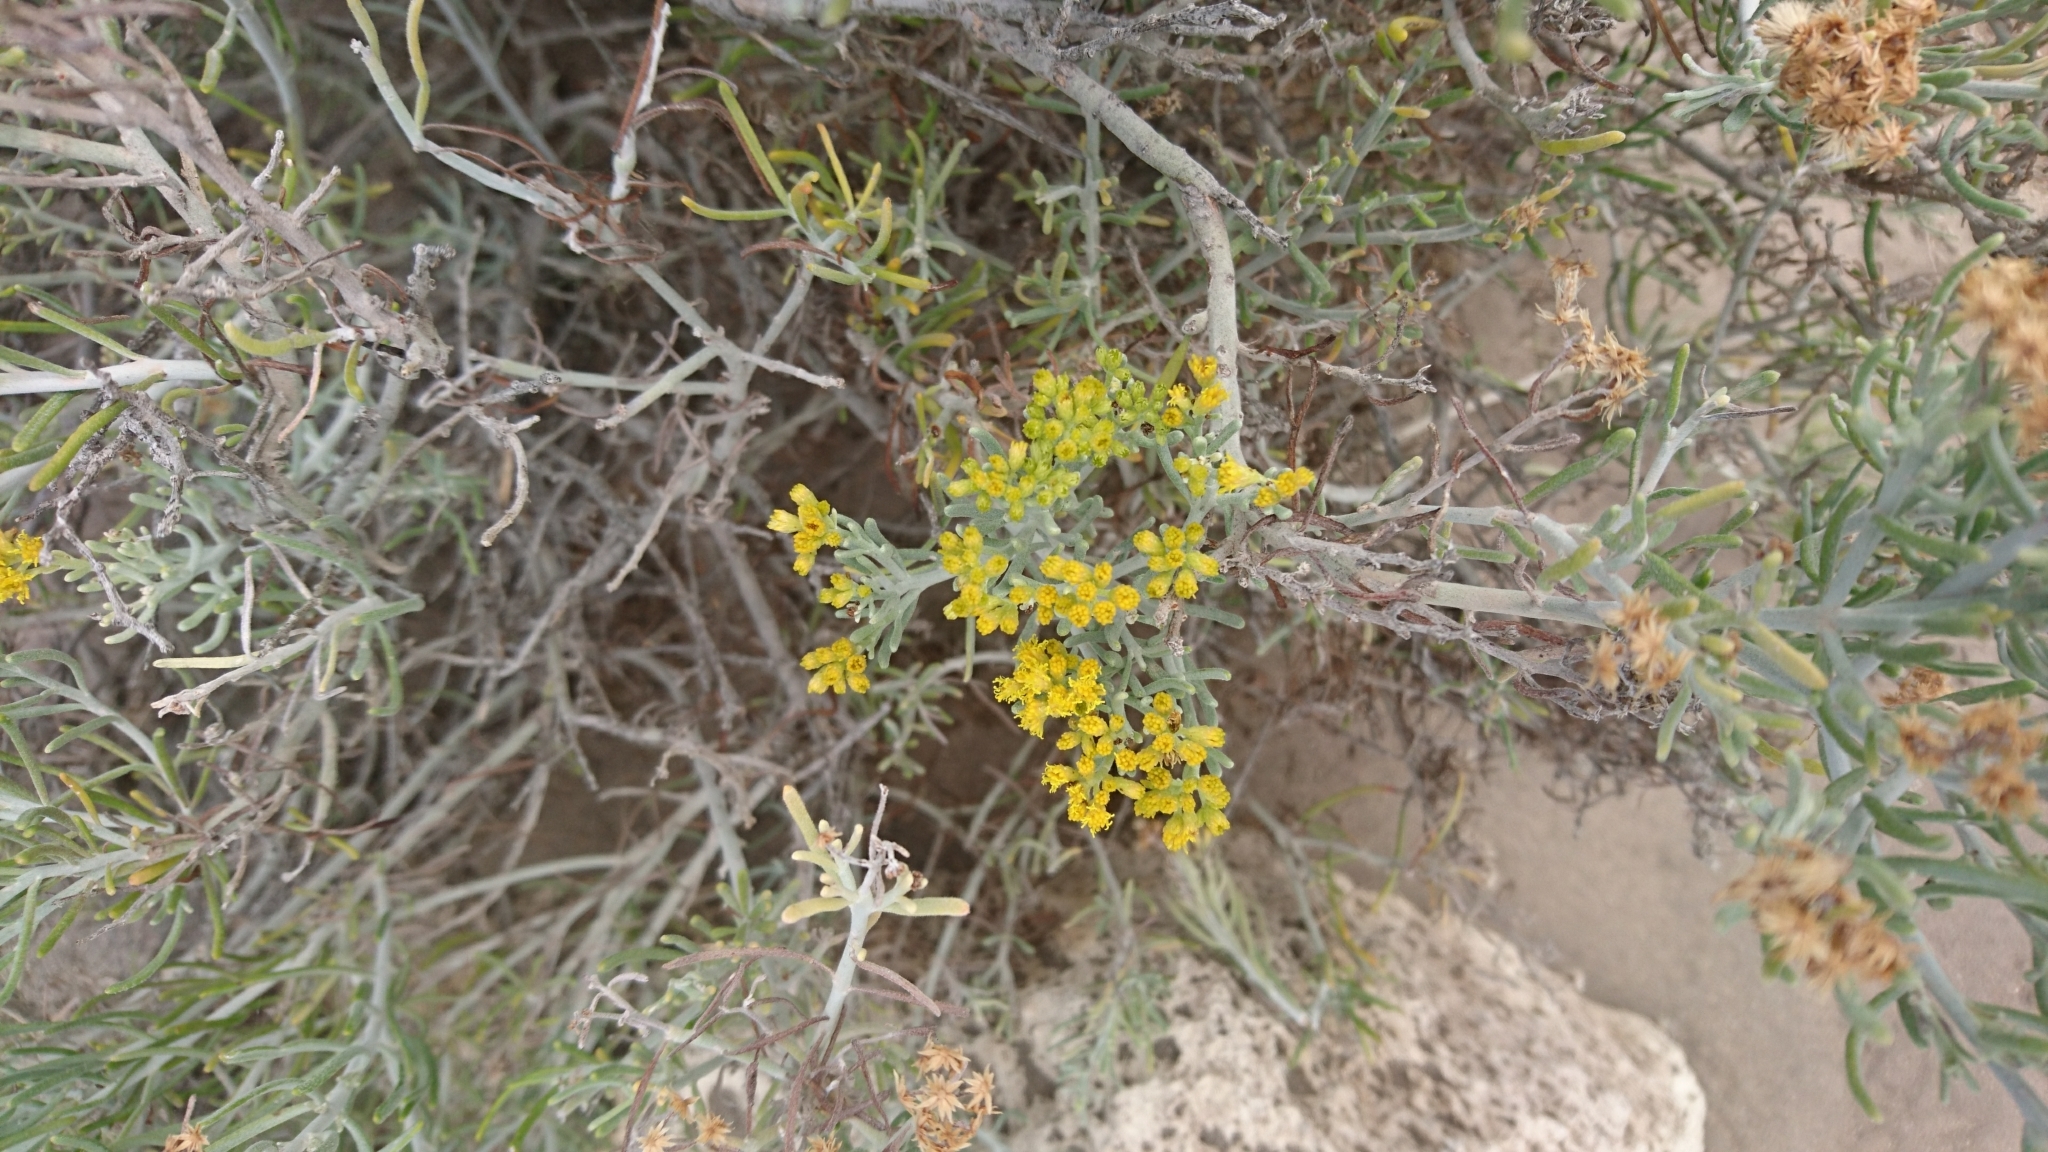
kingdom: Plantae
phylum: Tracheophyta
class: Magnoliopsida
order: Asterales
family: Asteraceae
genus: Schizogyne
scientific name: Schizogyne sericea
